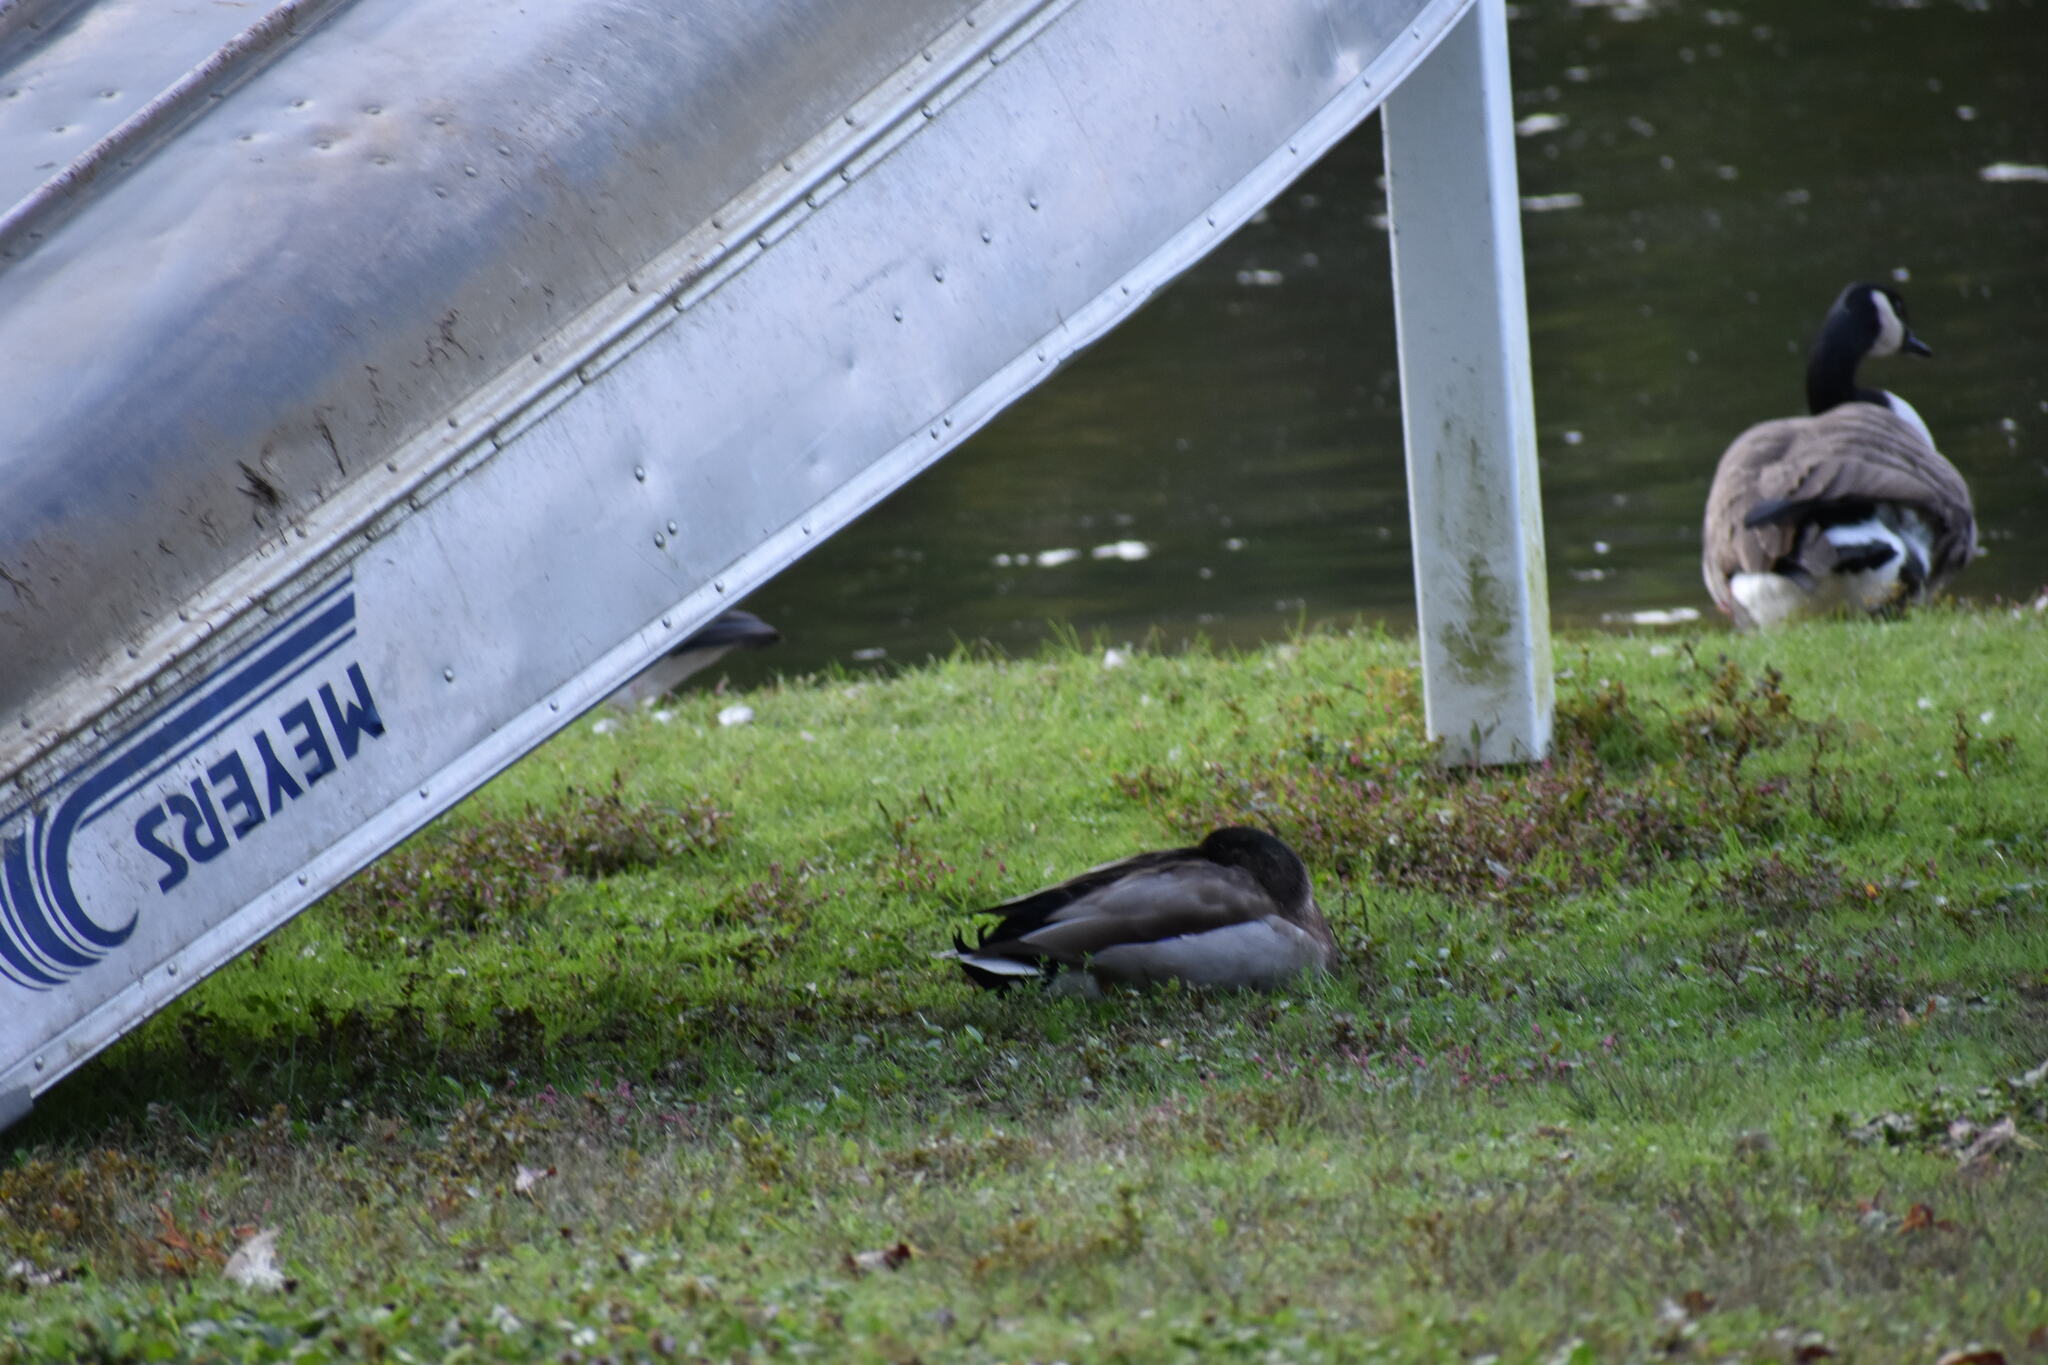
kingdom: Animalia
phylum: Chordata
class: Aves
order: Anseriformes
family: Anatidae
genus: Anas
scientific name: Anas platyrhynchos
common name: Mallard
